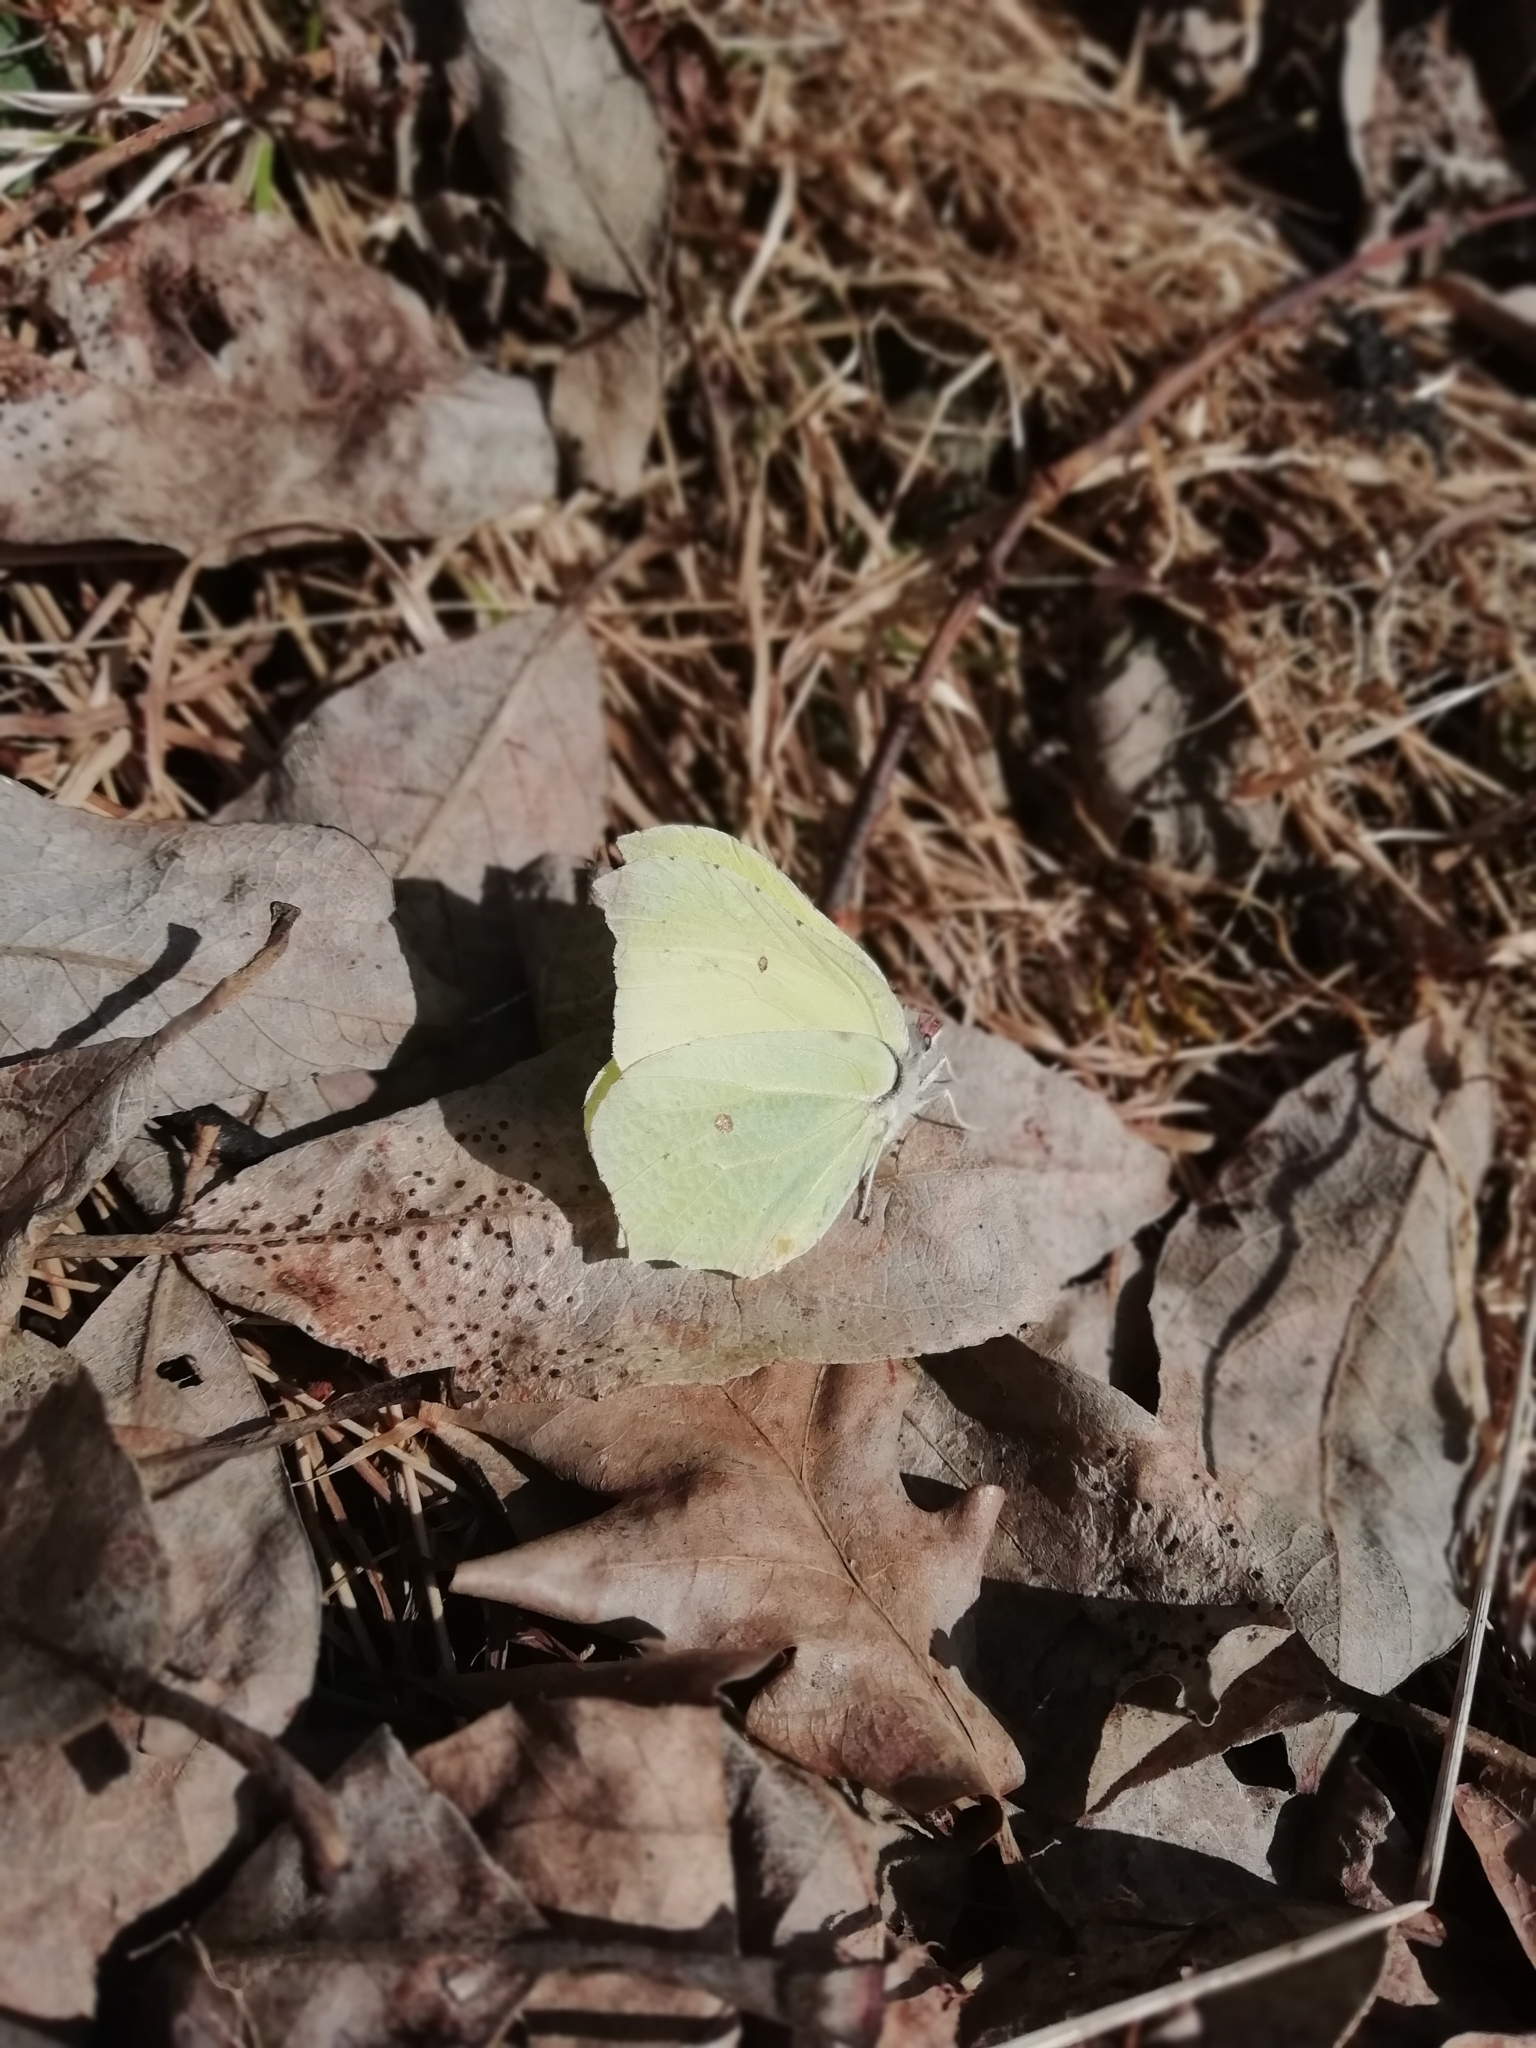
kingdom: Animalia
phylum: Arthropoda
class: Insecta
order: Lepidoptera
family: Pieridae
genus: Gonepteryx
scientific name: Gonepteryx rhamni
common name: Brimstone
